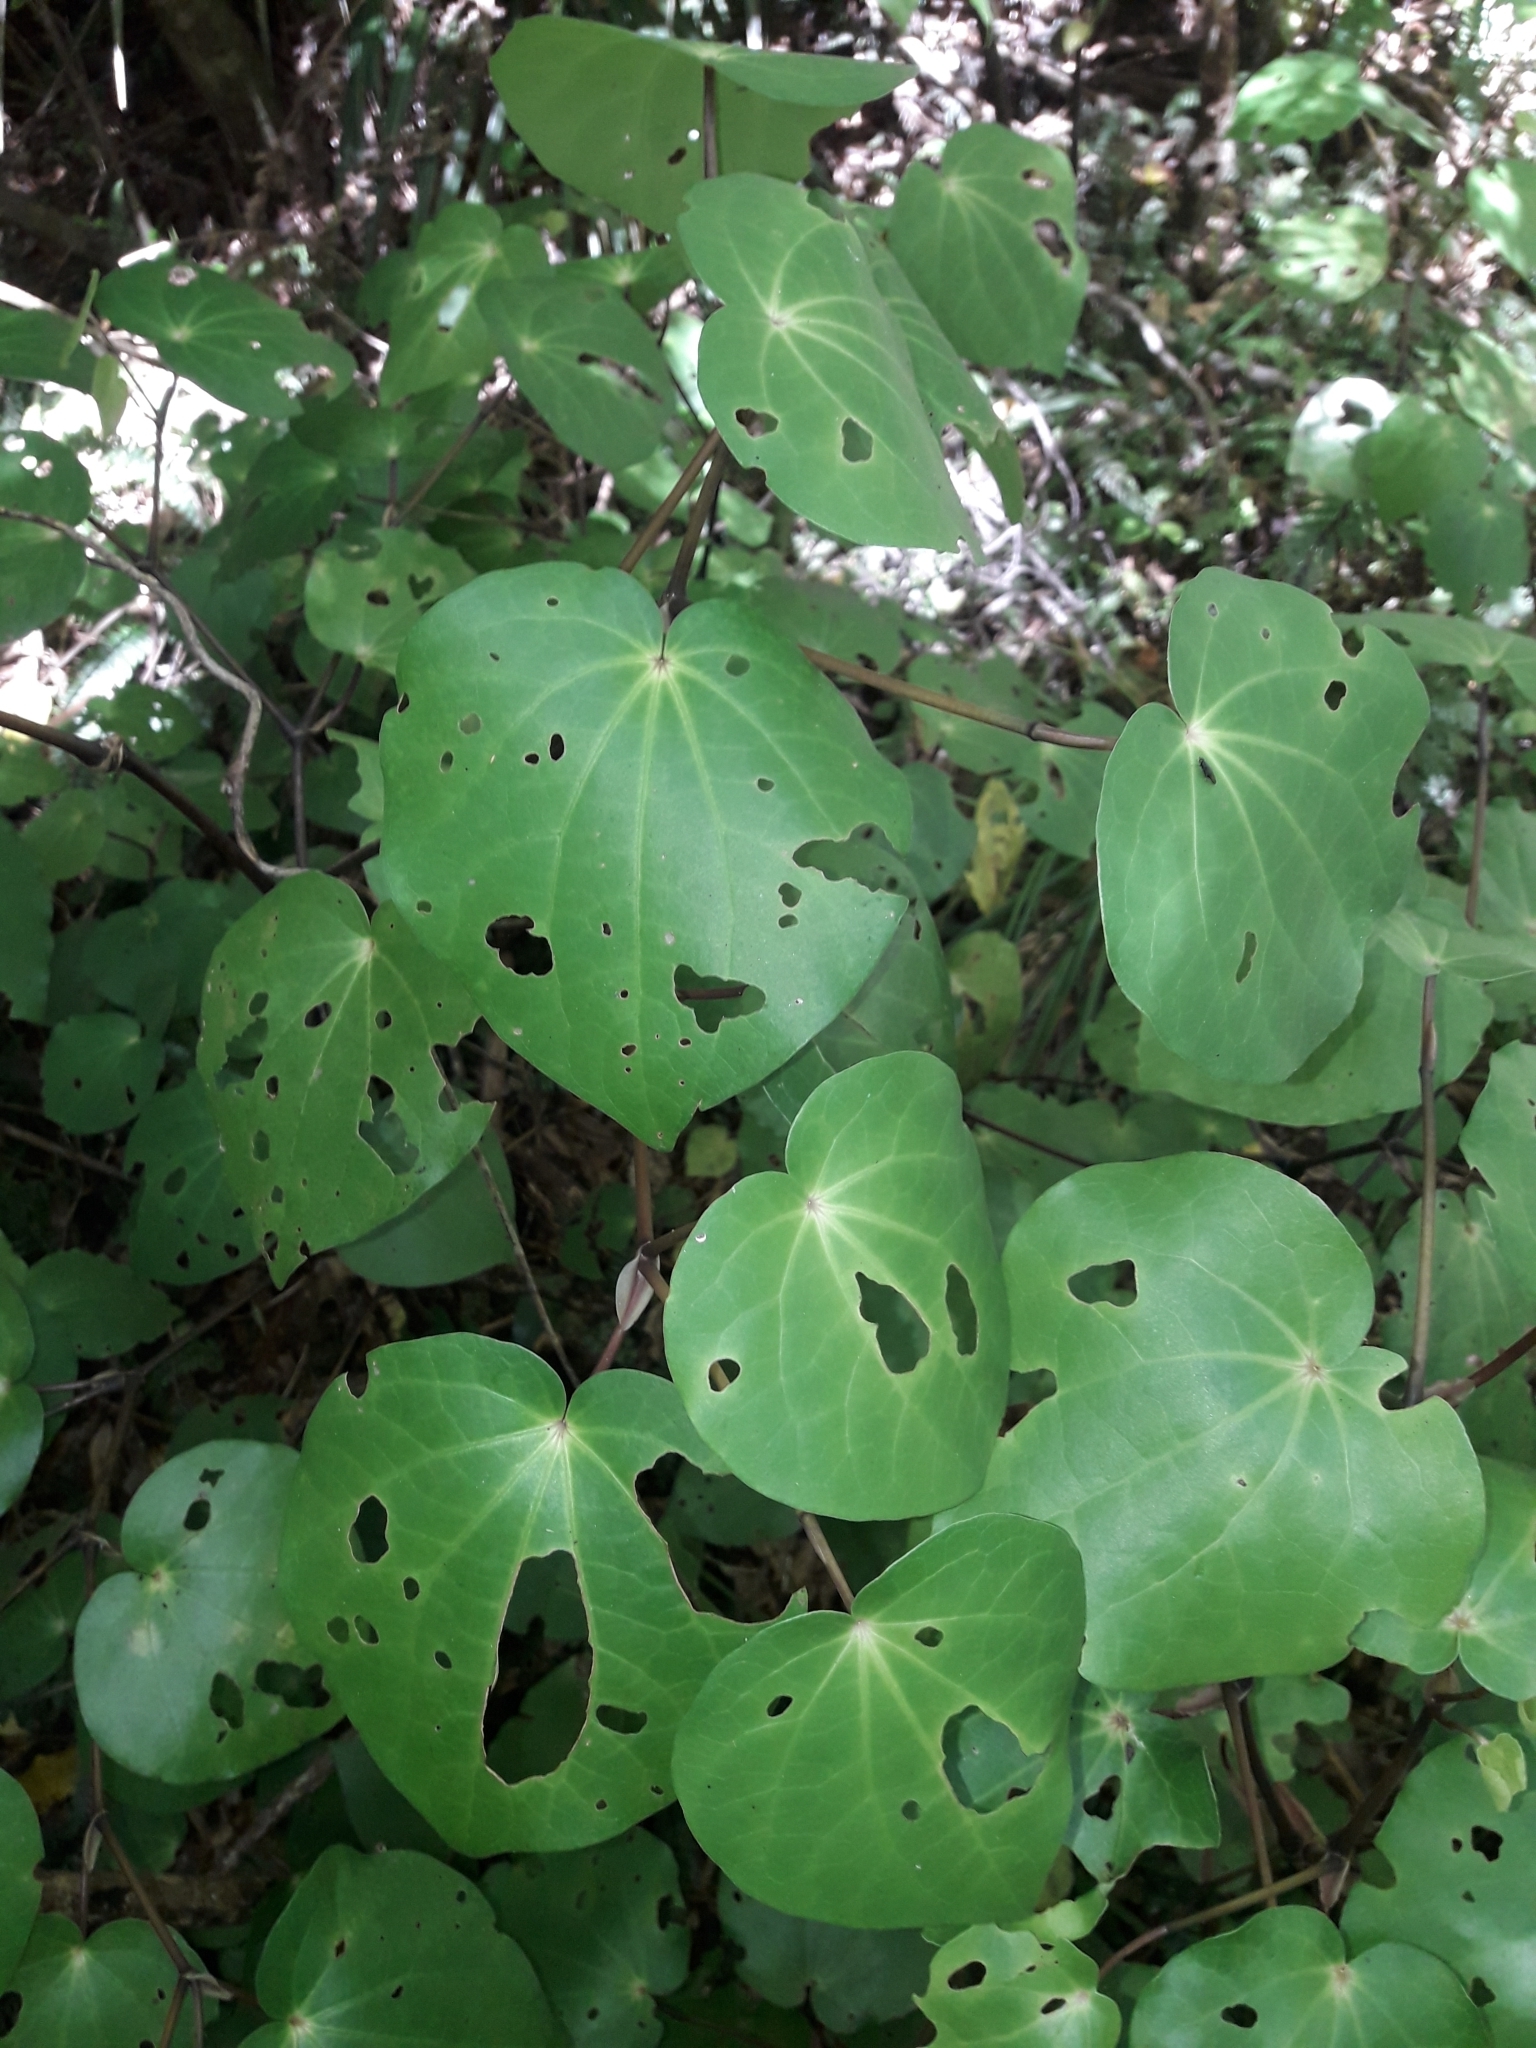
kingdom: Plantae
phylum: Tracheophyta
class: Magnoliopsida
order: Piperales
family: Piperaceae
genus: Macropiper
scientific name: Macropiper excelsum
